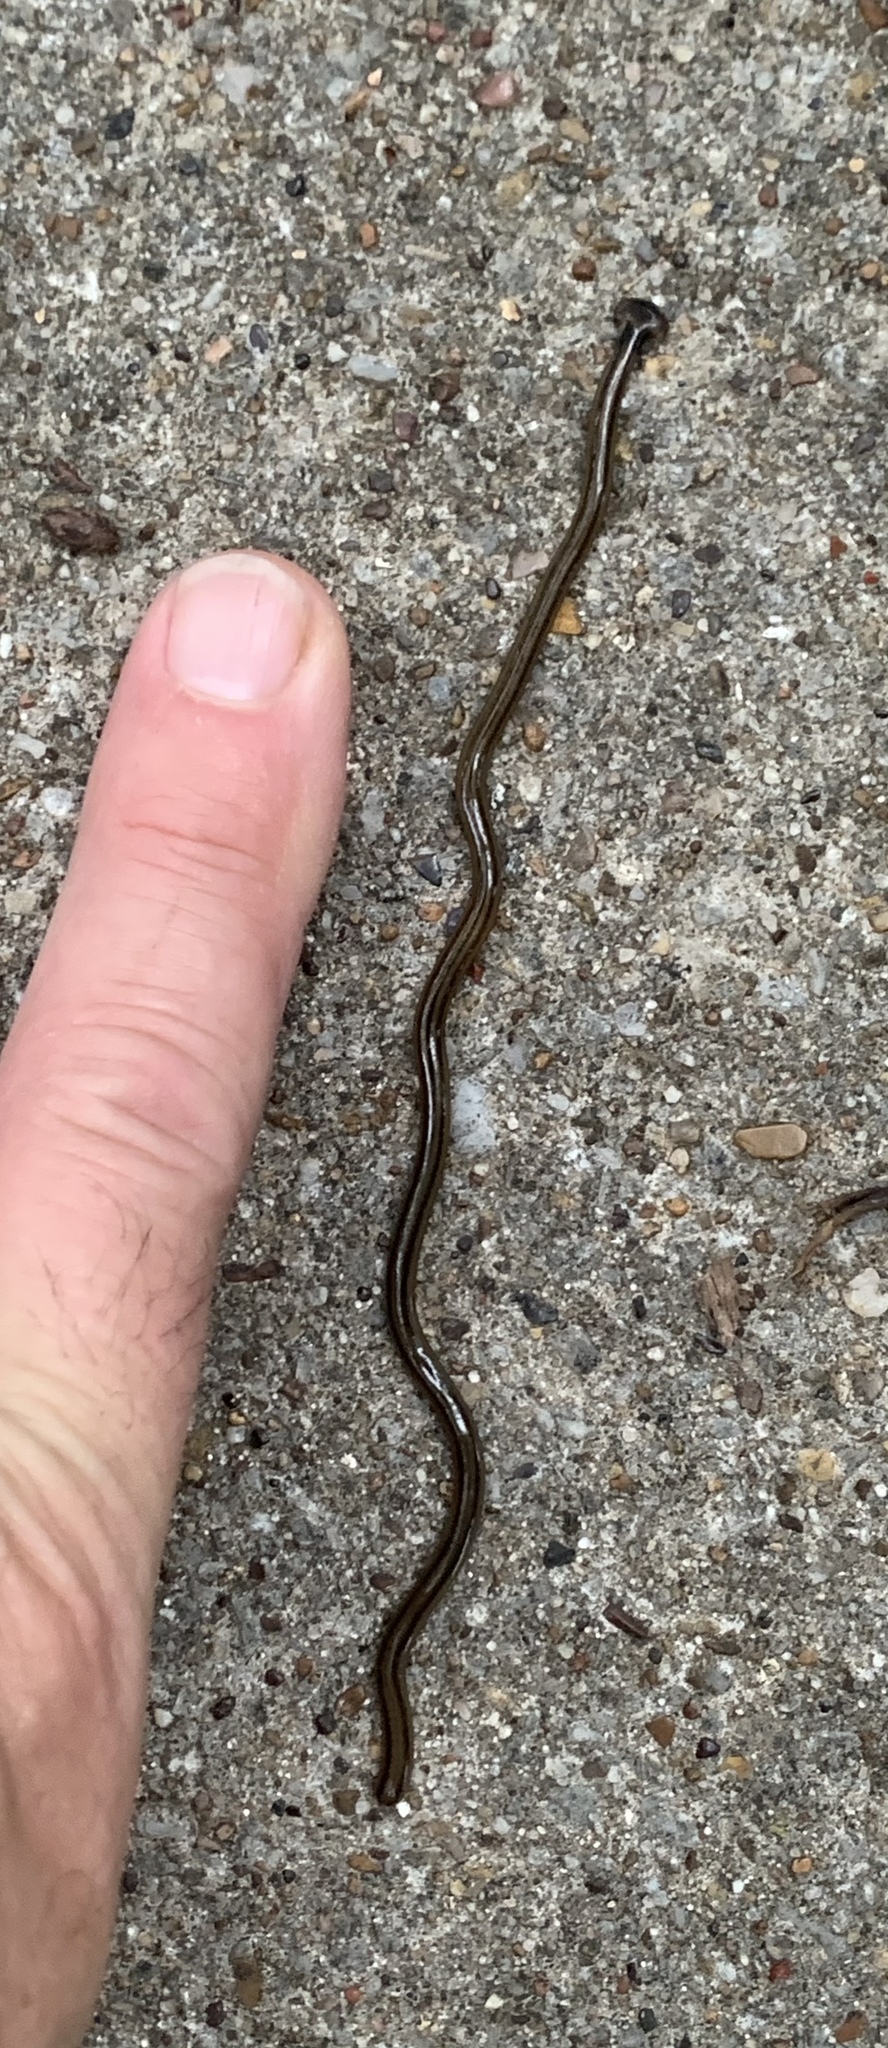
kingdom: Animalia
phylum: Platyhelminthes
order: Tricladida
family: Geoplanidae
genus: Bipalium
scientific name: Bipalium kewense
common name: Hammerhead flatworm
